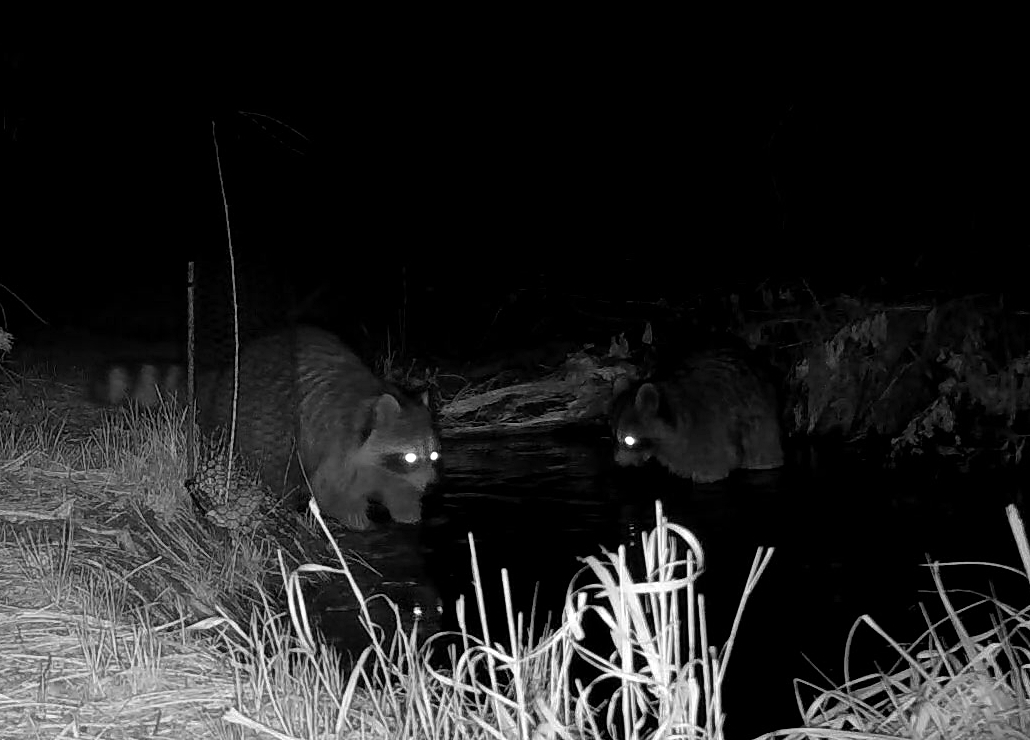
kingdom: Animalia
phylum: Chordata
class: Mammalia
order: Carnivora
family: Procyonidae
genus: Procyon
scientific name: Procyon lotor
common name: Raccoon
